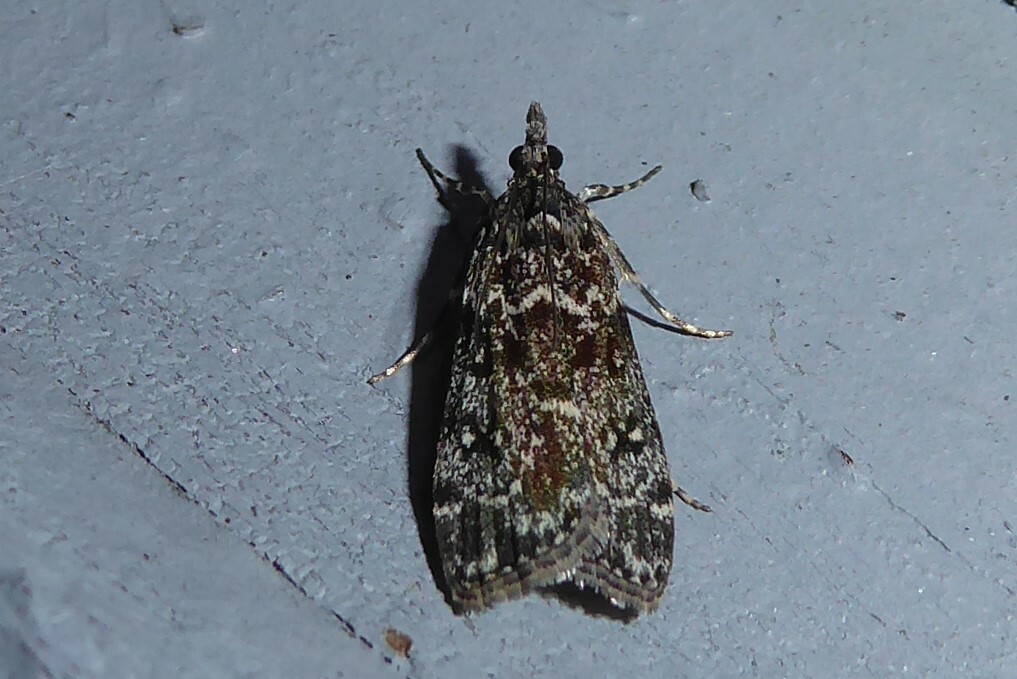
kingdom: Animalia
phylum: Arthropoda
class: Insecta
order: Lepidoptera
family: Crambidae
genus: Eudonia
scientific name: Eudonia philerga
